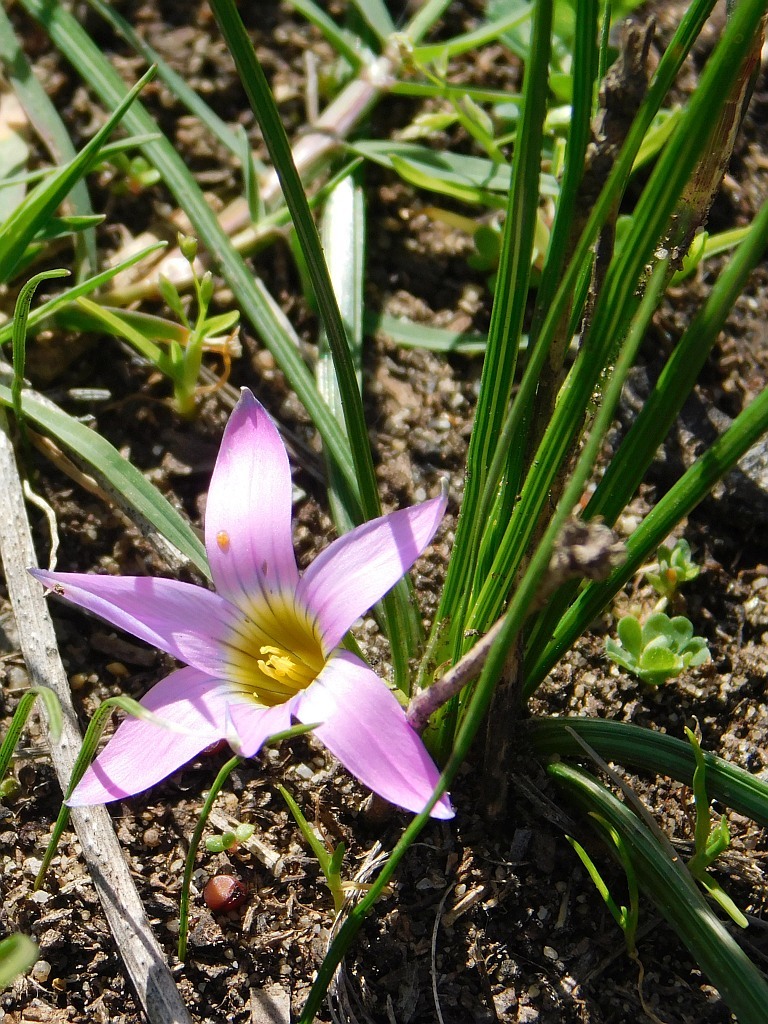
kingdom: Plantae
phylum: Tracheophyta
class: Liliopsida
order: Asparagales
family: Iridaceae
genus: Romulea
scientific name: Romulea rosea
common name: Oniongrass
